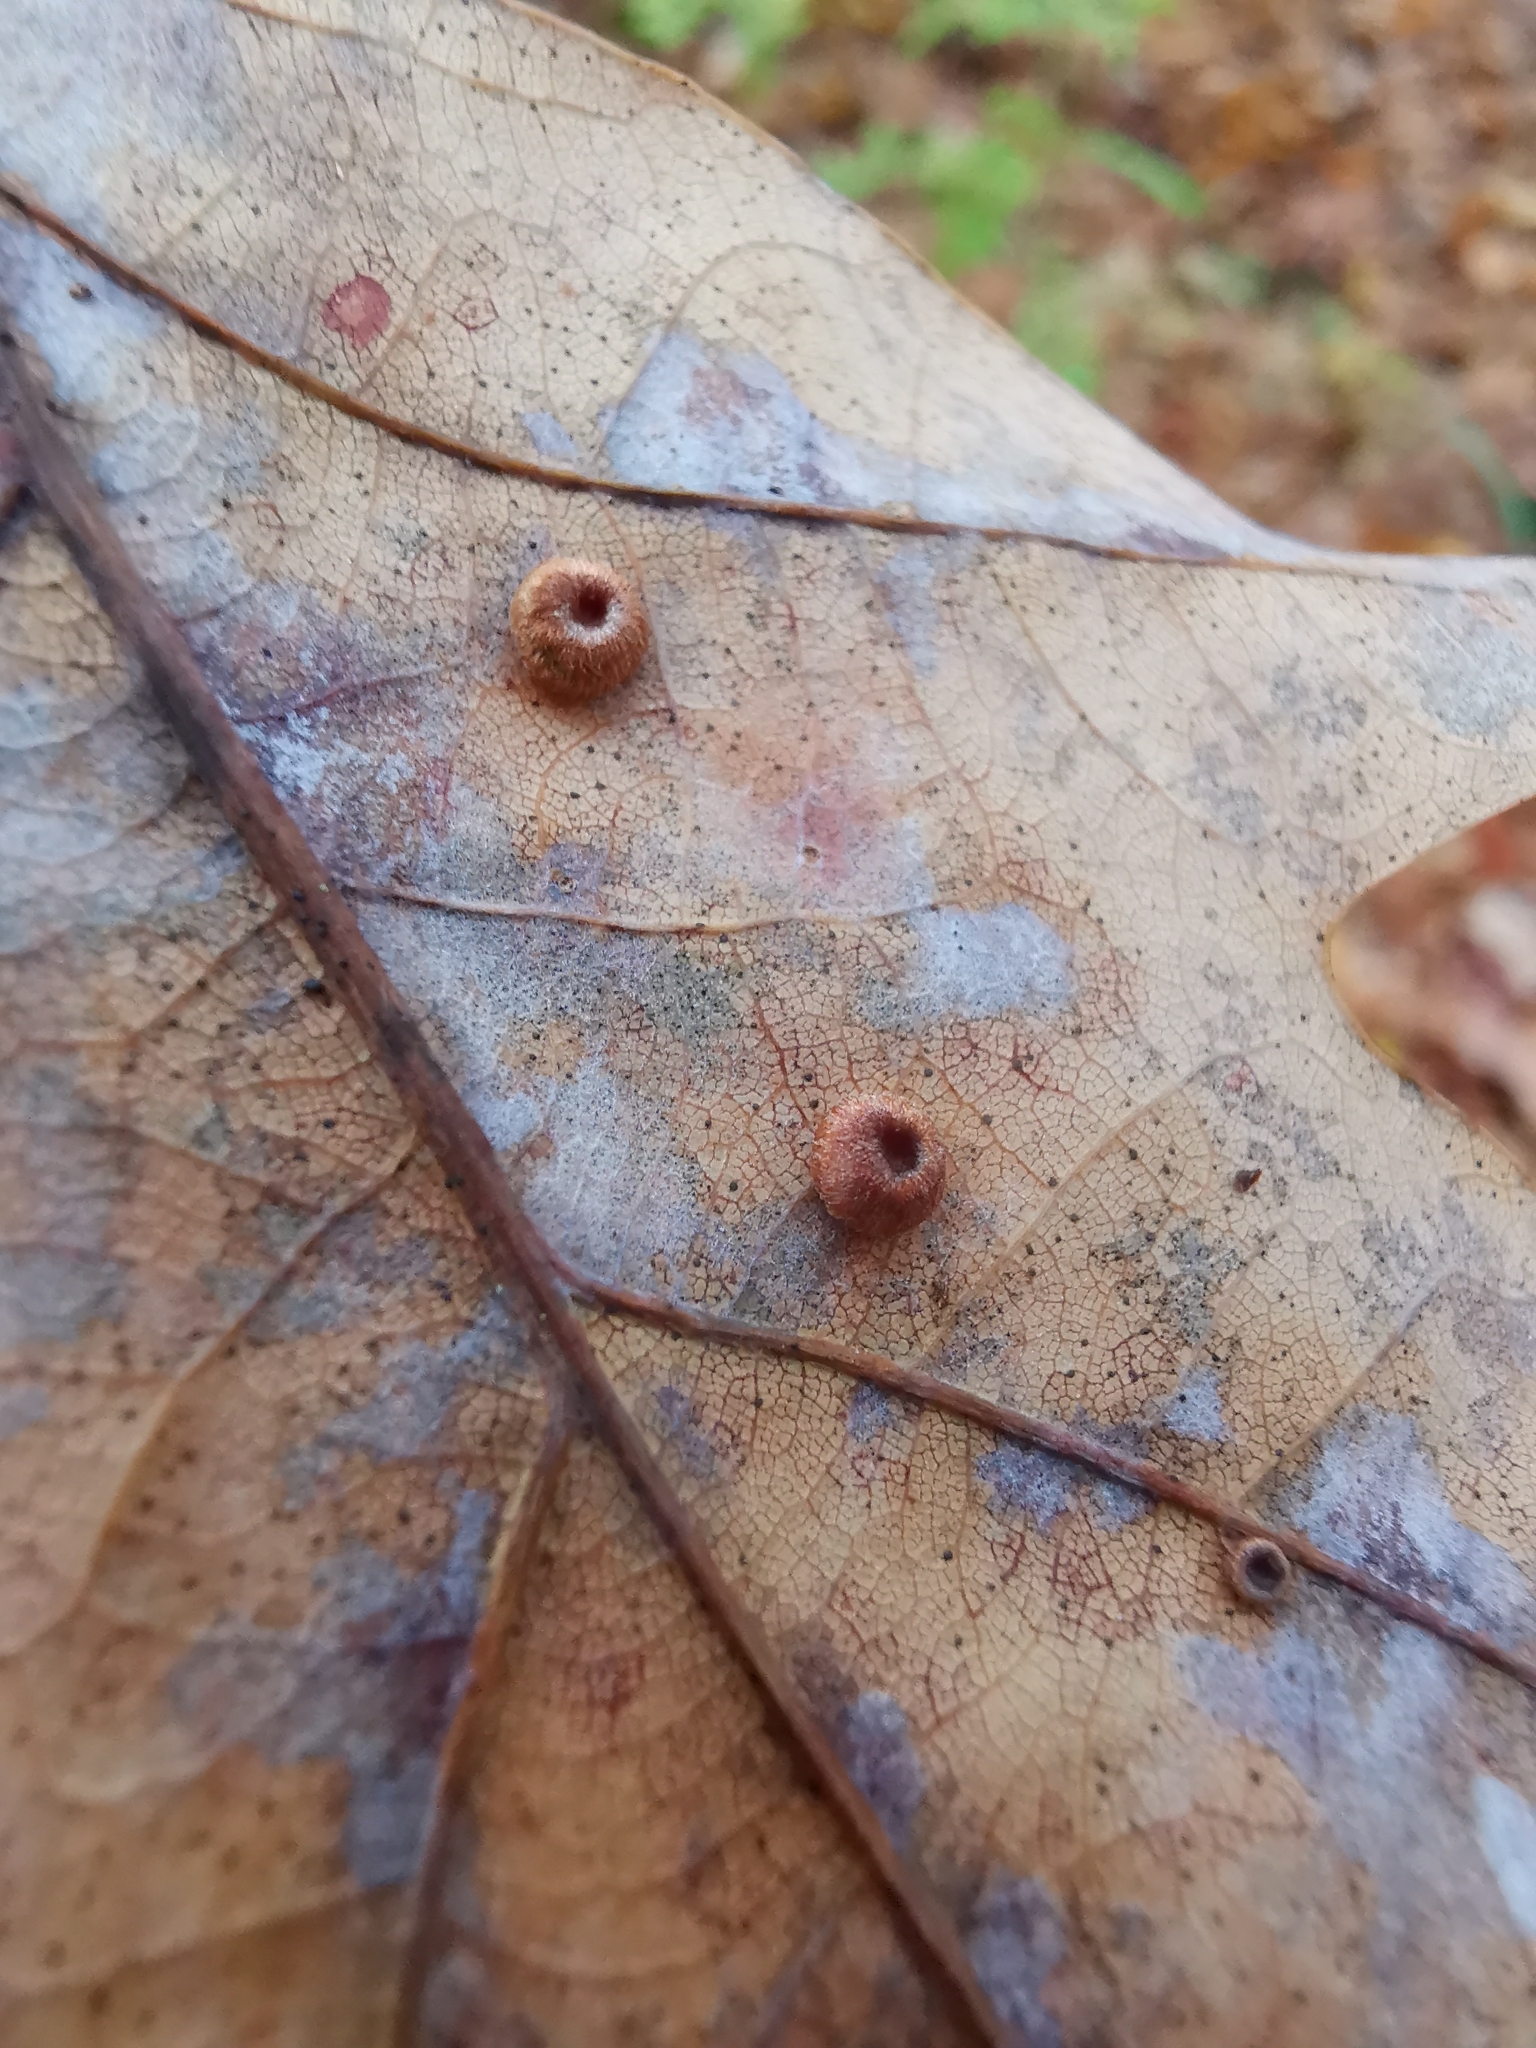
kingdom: Animalia
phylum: Arthropoda
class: Insecta
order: Hymenoptera
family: Cynipidae
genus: Neuroterus
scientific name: Neuroterus numismalis
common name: Silk-button spangle gall
